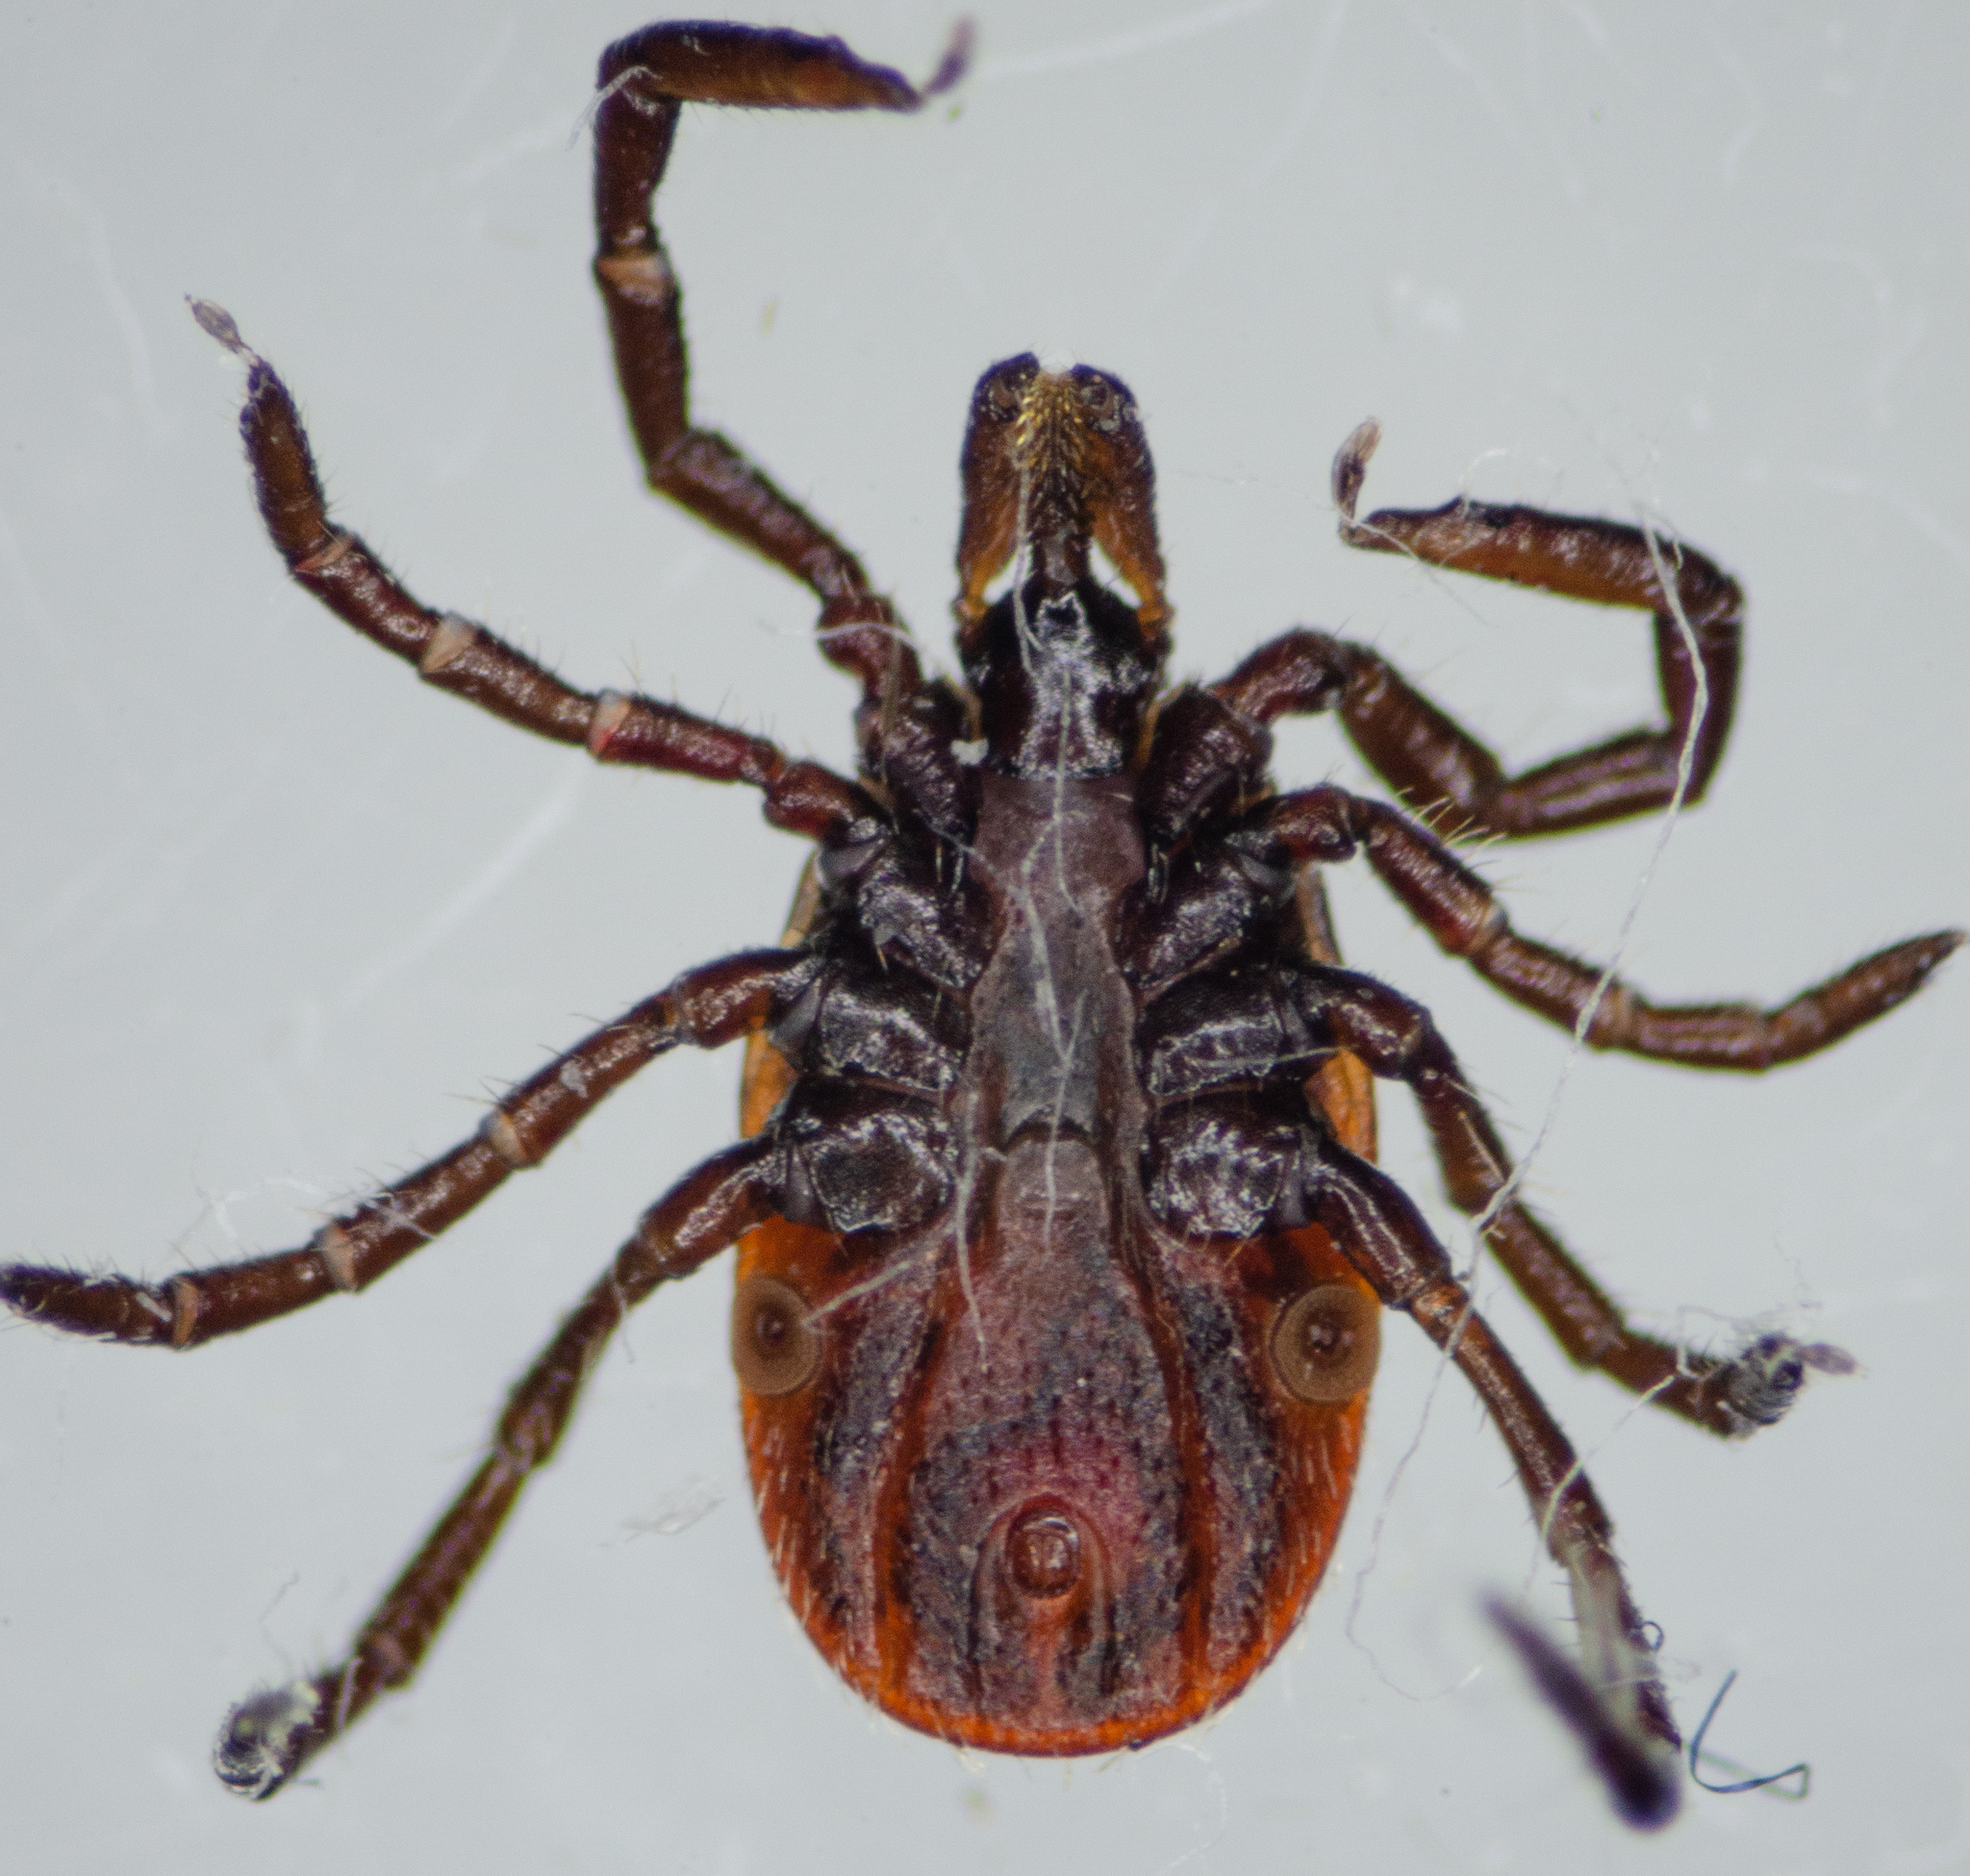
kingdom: Animalia
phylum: Arthropoda
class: Arachnida
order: Ixodida
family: Ixodidae
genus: Ixodes
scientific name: Ixodes pacificus
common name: California black-legged tick
